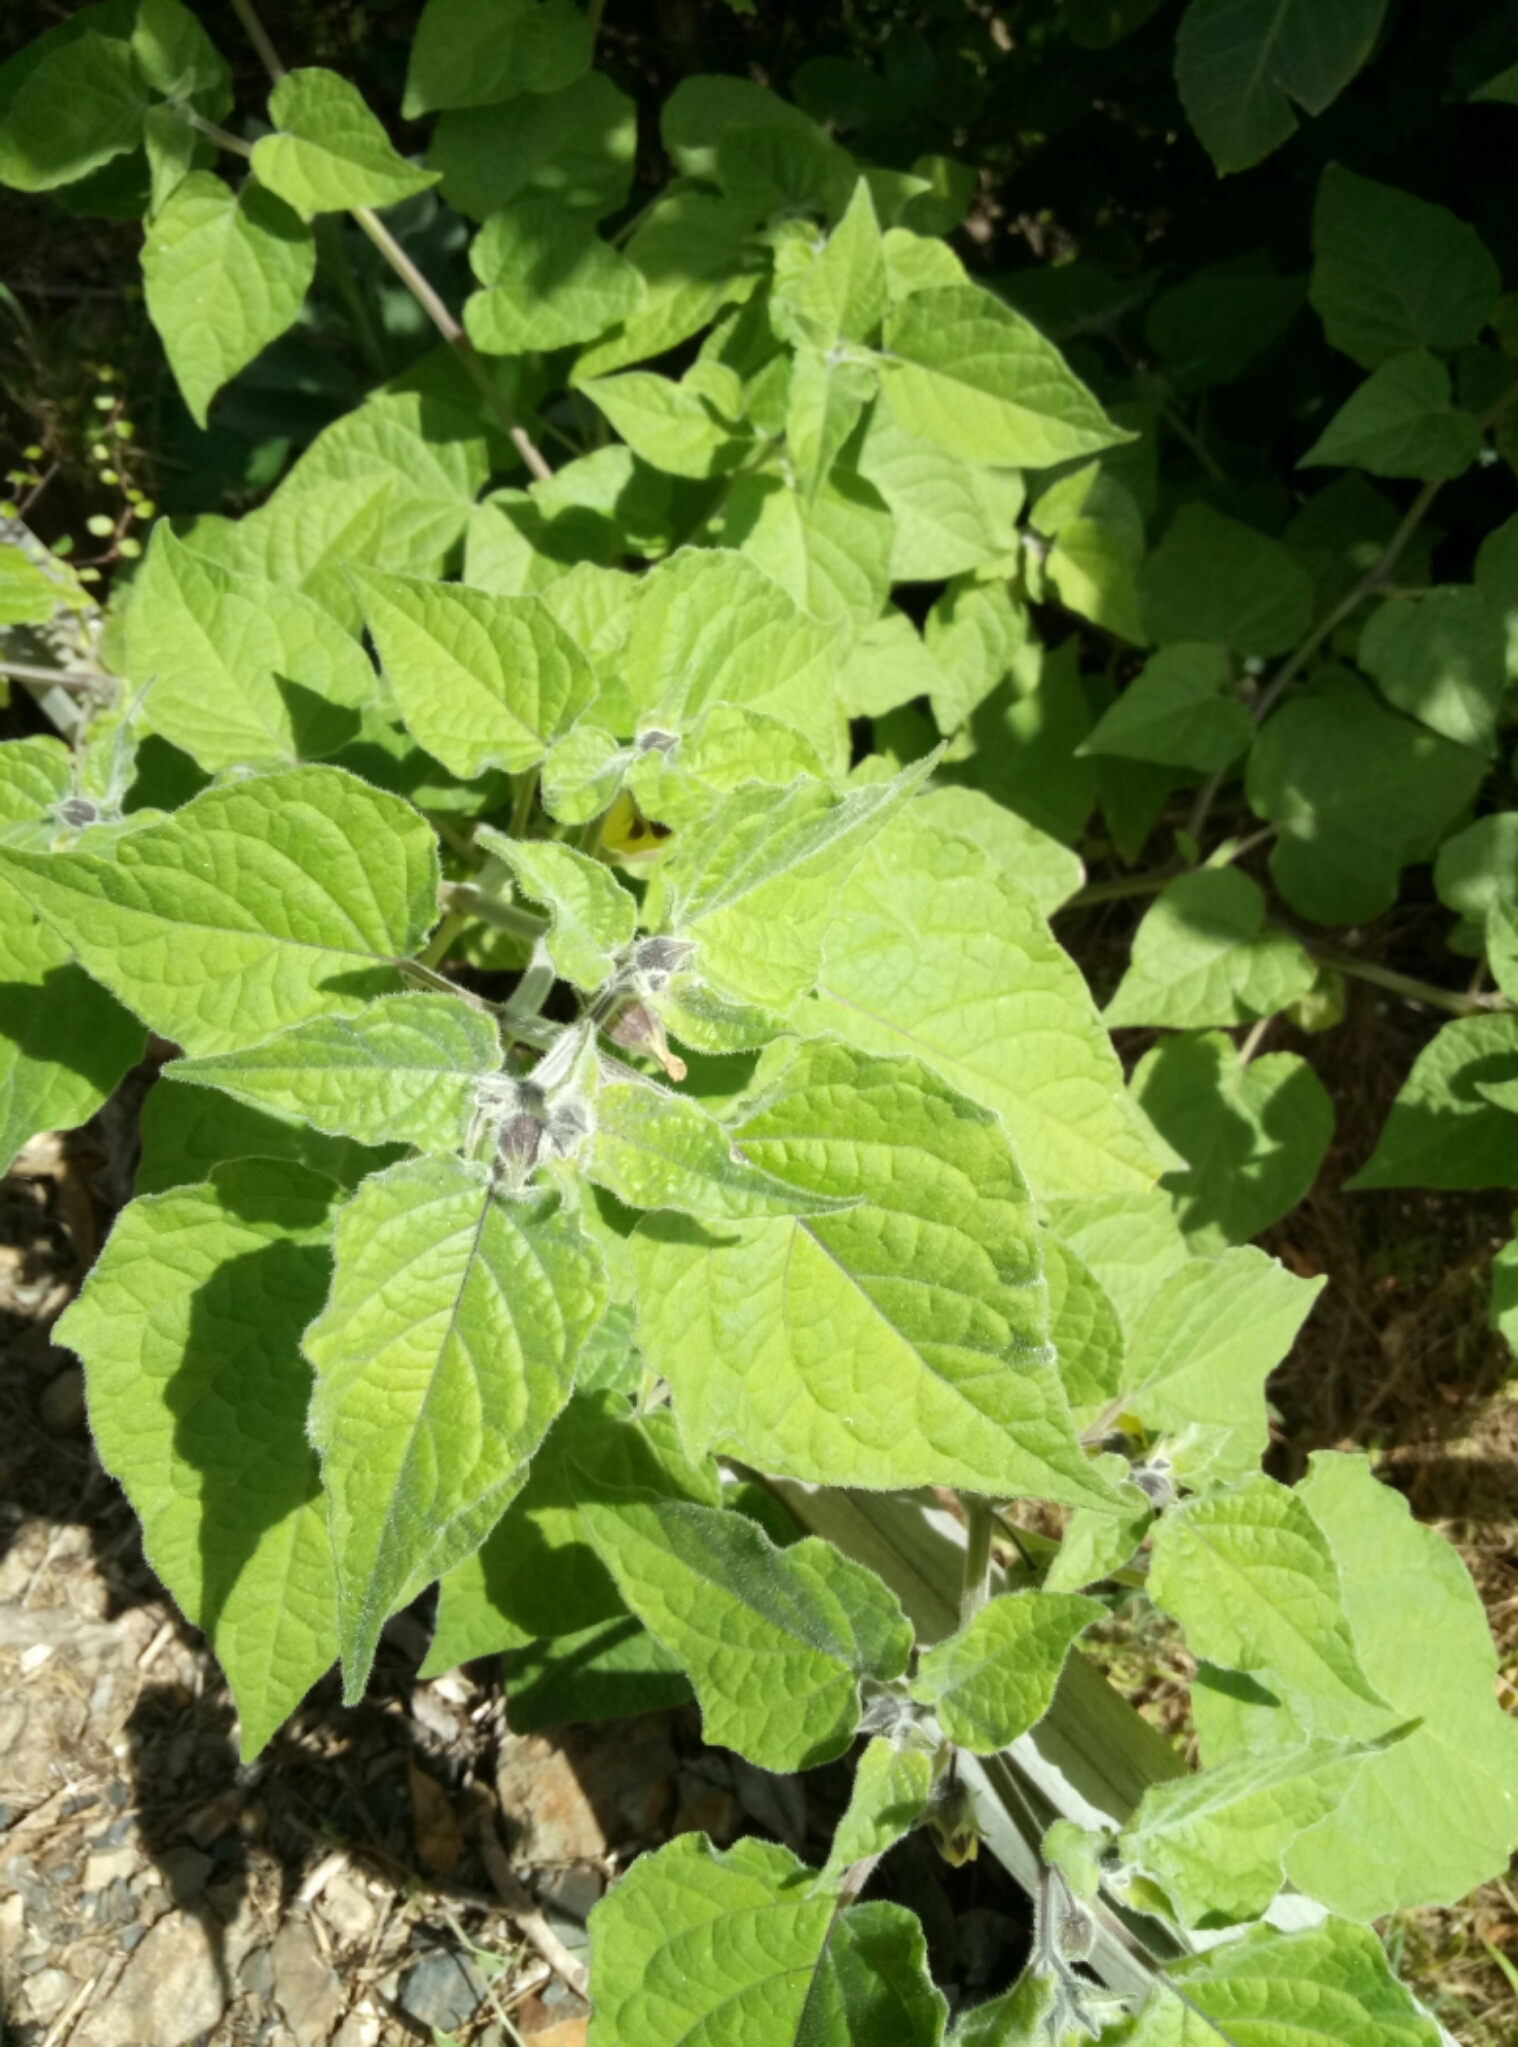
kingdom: Plantae
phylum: Tracheophyta
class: Magnoliopsida
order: Solanales
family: Solanaceae
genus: Physalis
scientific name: Physalis peruviana
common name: Cape-gooseberry
